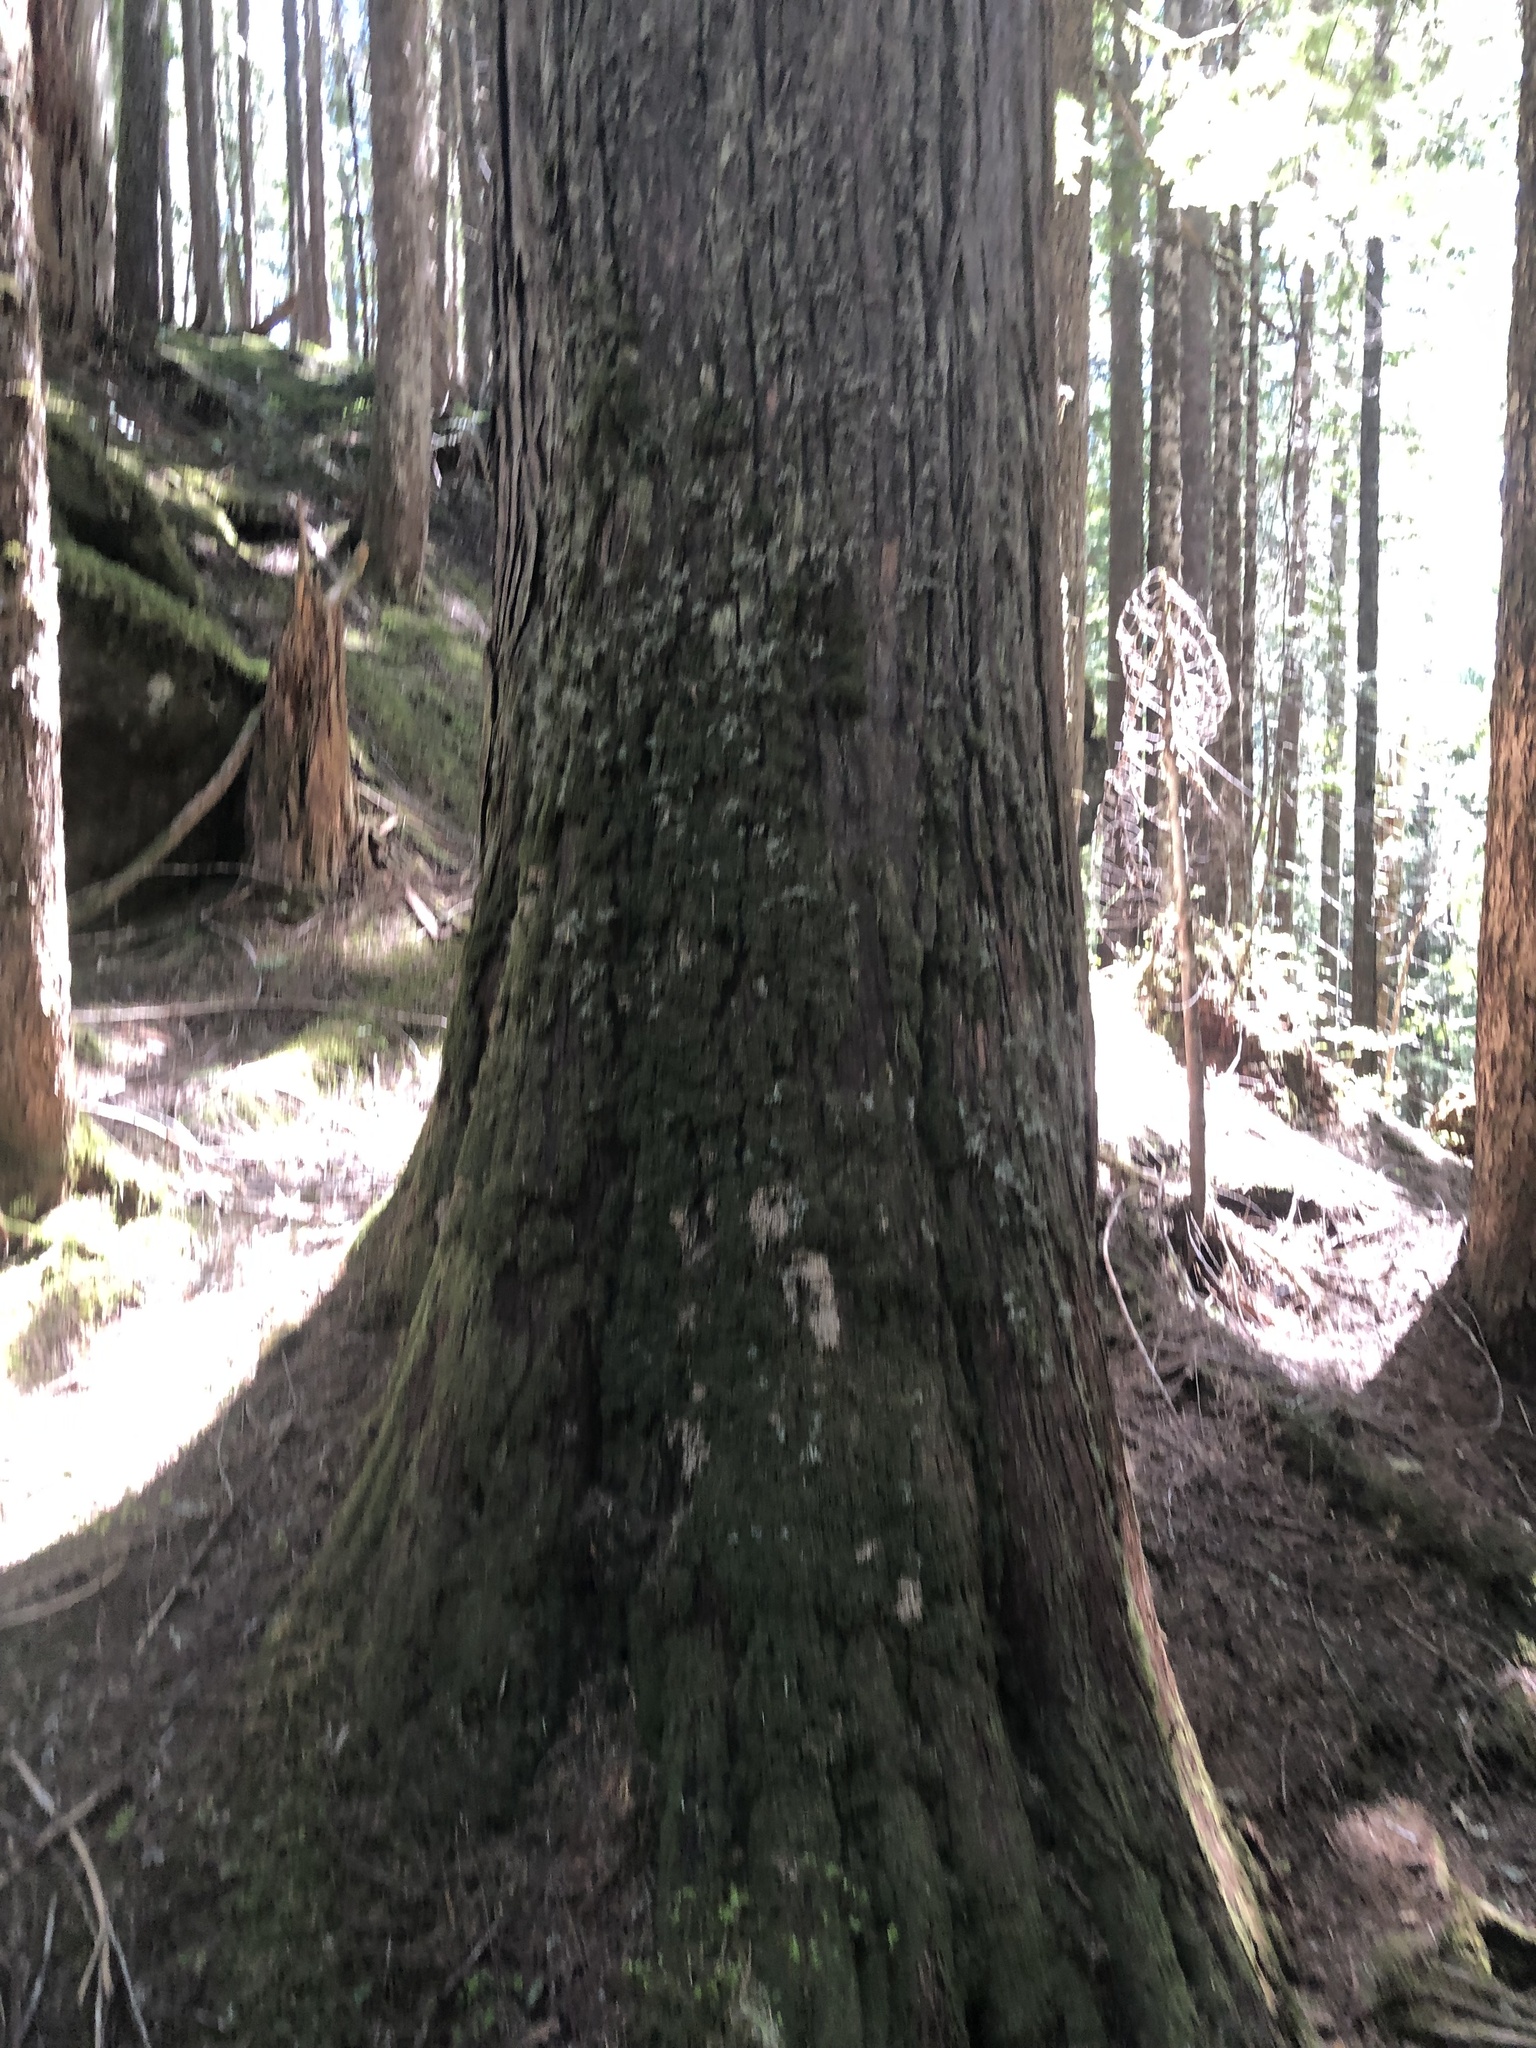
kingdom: Plantae
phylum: Tracheophyta
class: Pinopsida
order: Pinales
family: Cupressaceae
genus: Thuja
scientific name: Thuja plicata
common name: Western red-cedar
